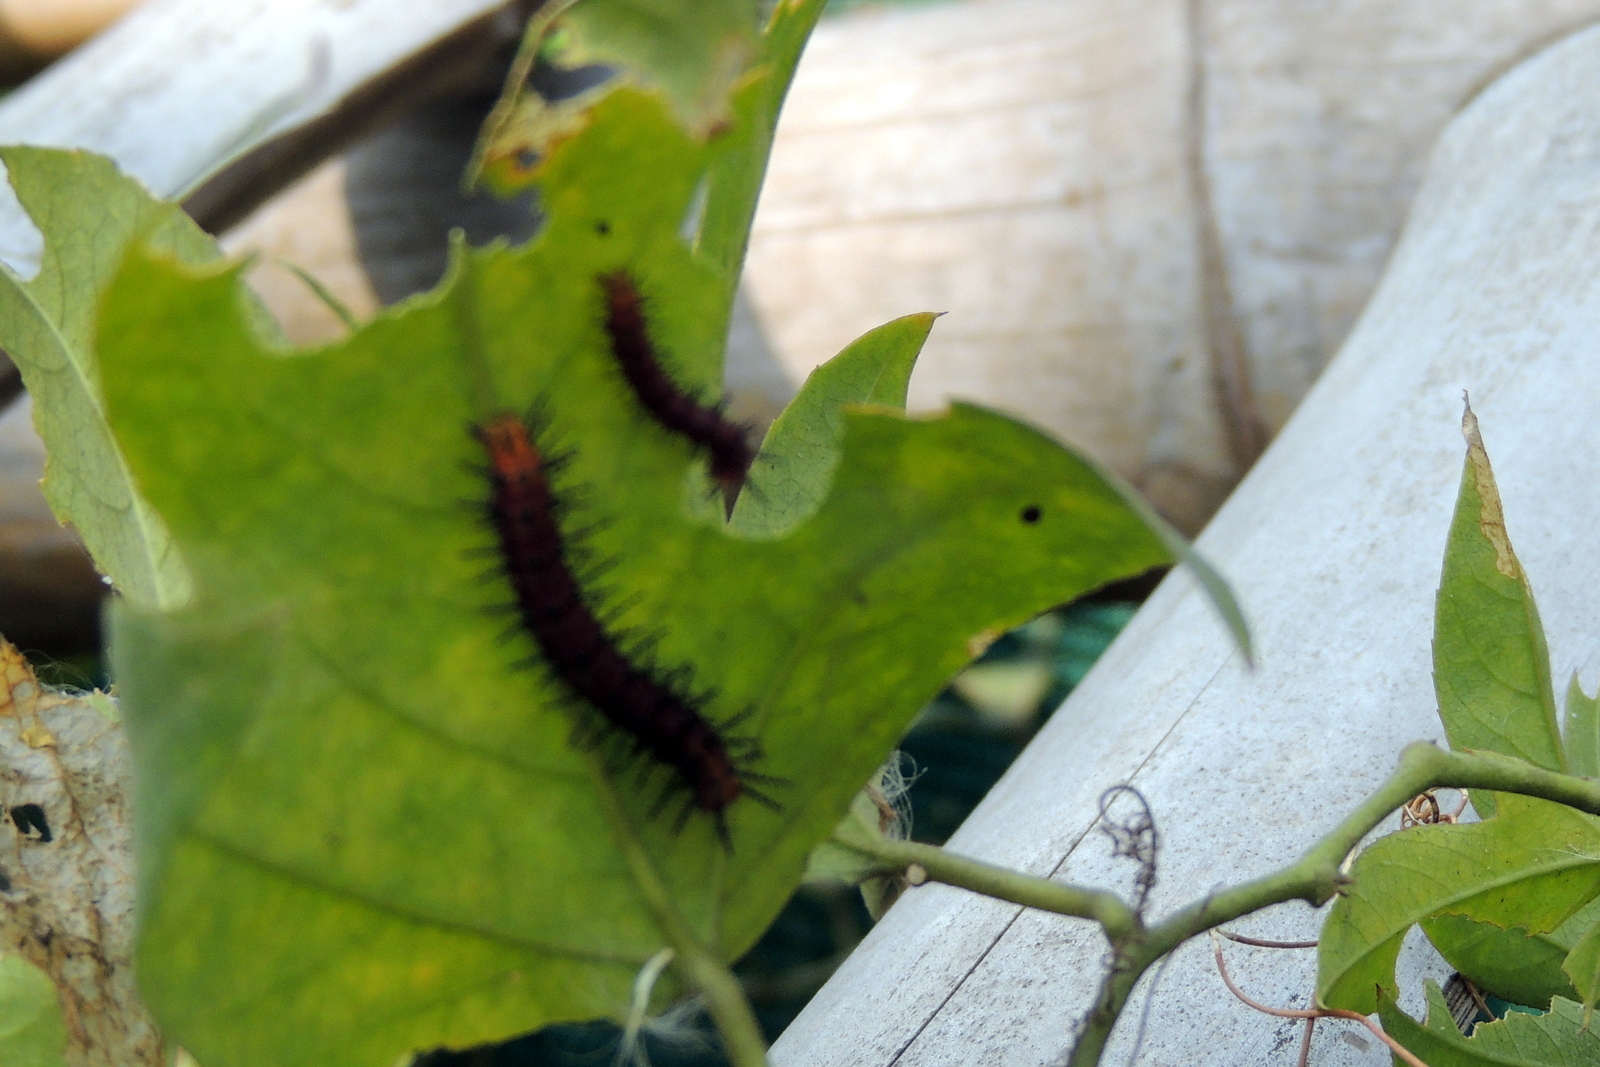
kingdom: Animalia
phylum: Arthropoda
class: Insecta
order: Lepidoptera
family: Nymphalidae
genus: Acraea
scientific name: Acraea terpsicore
